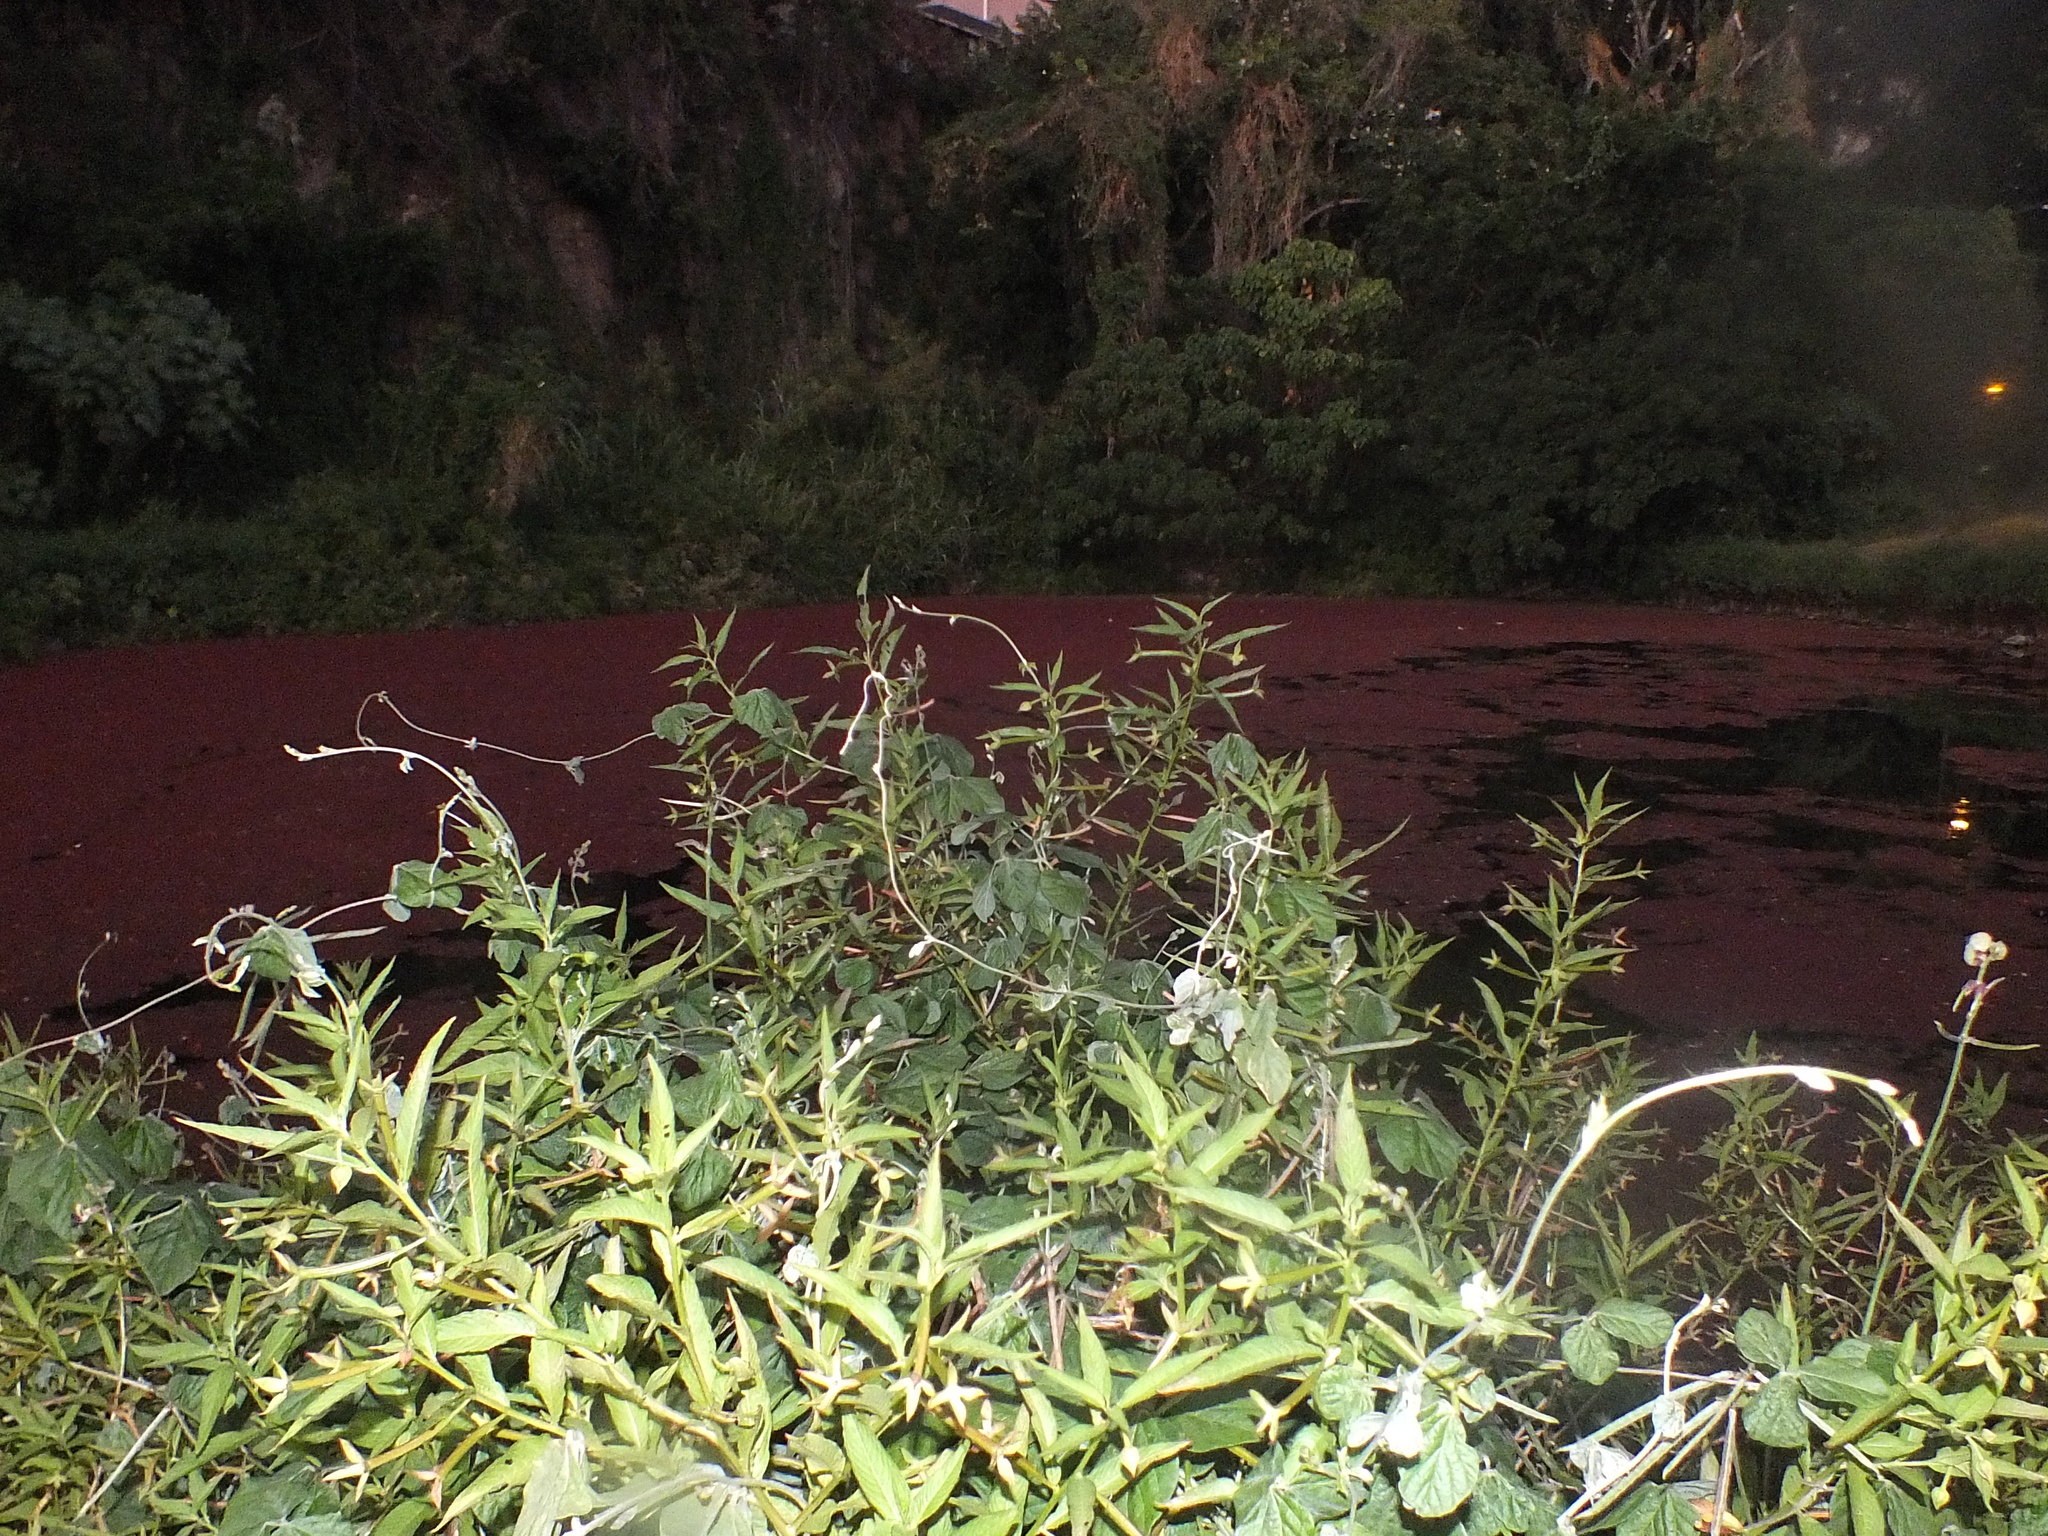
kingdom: Plantae
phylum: Tracheophyta
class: Magnoliopsida
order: Fabales
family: Fabaceae
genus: Macroptilium
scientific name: Macroptilium atropurpureum
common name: Purple bushbean
